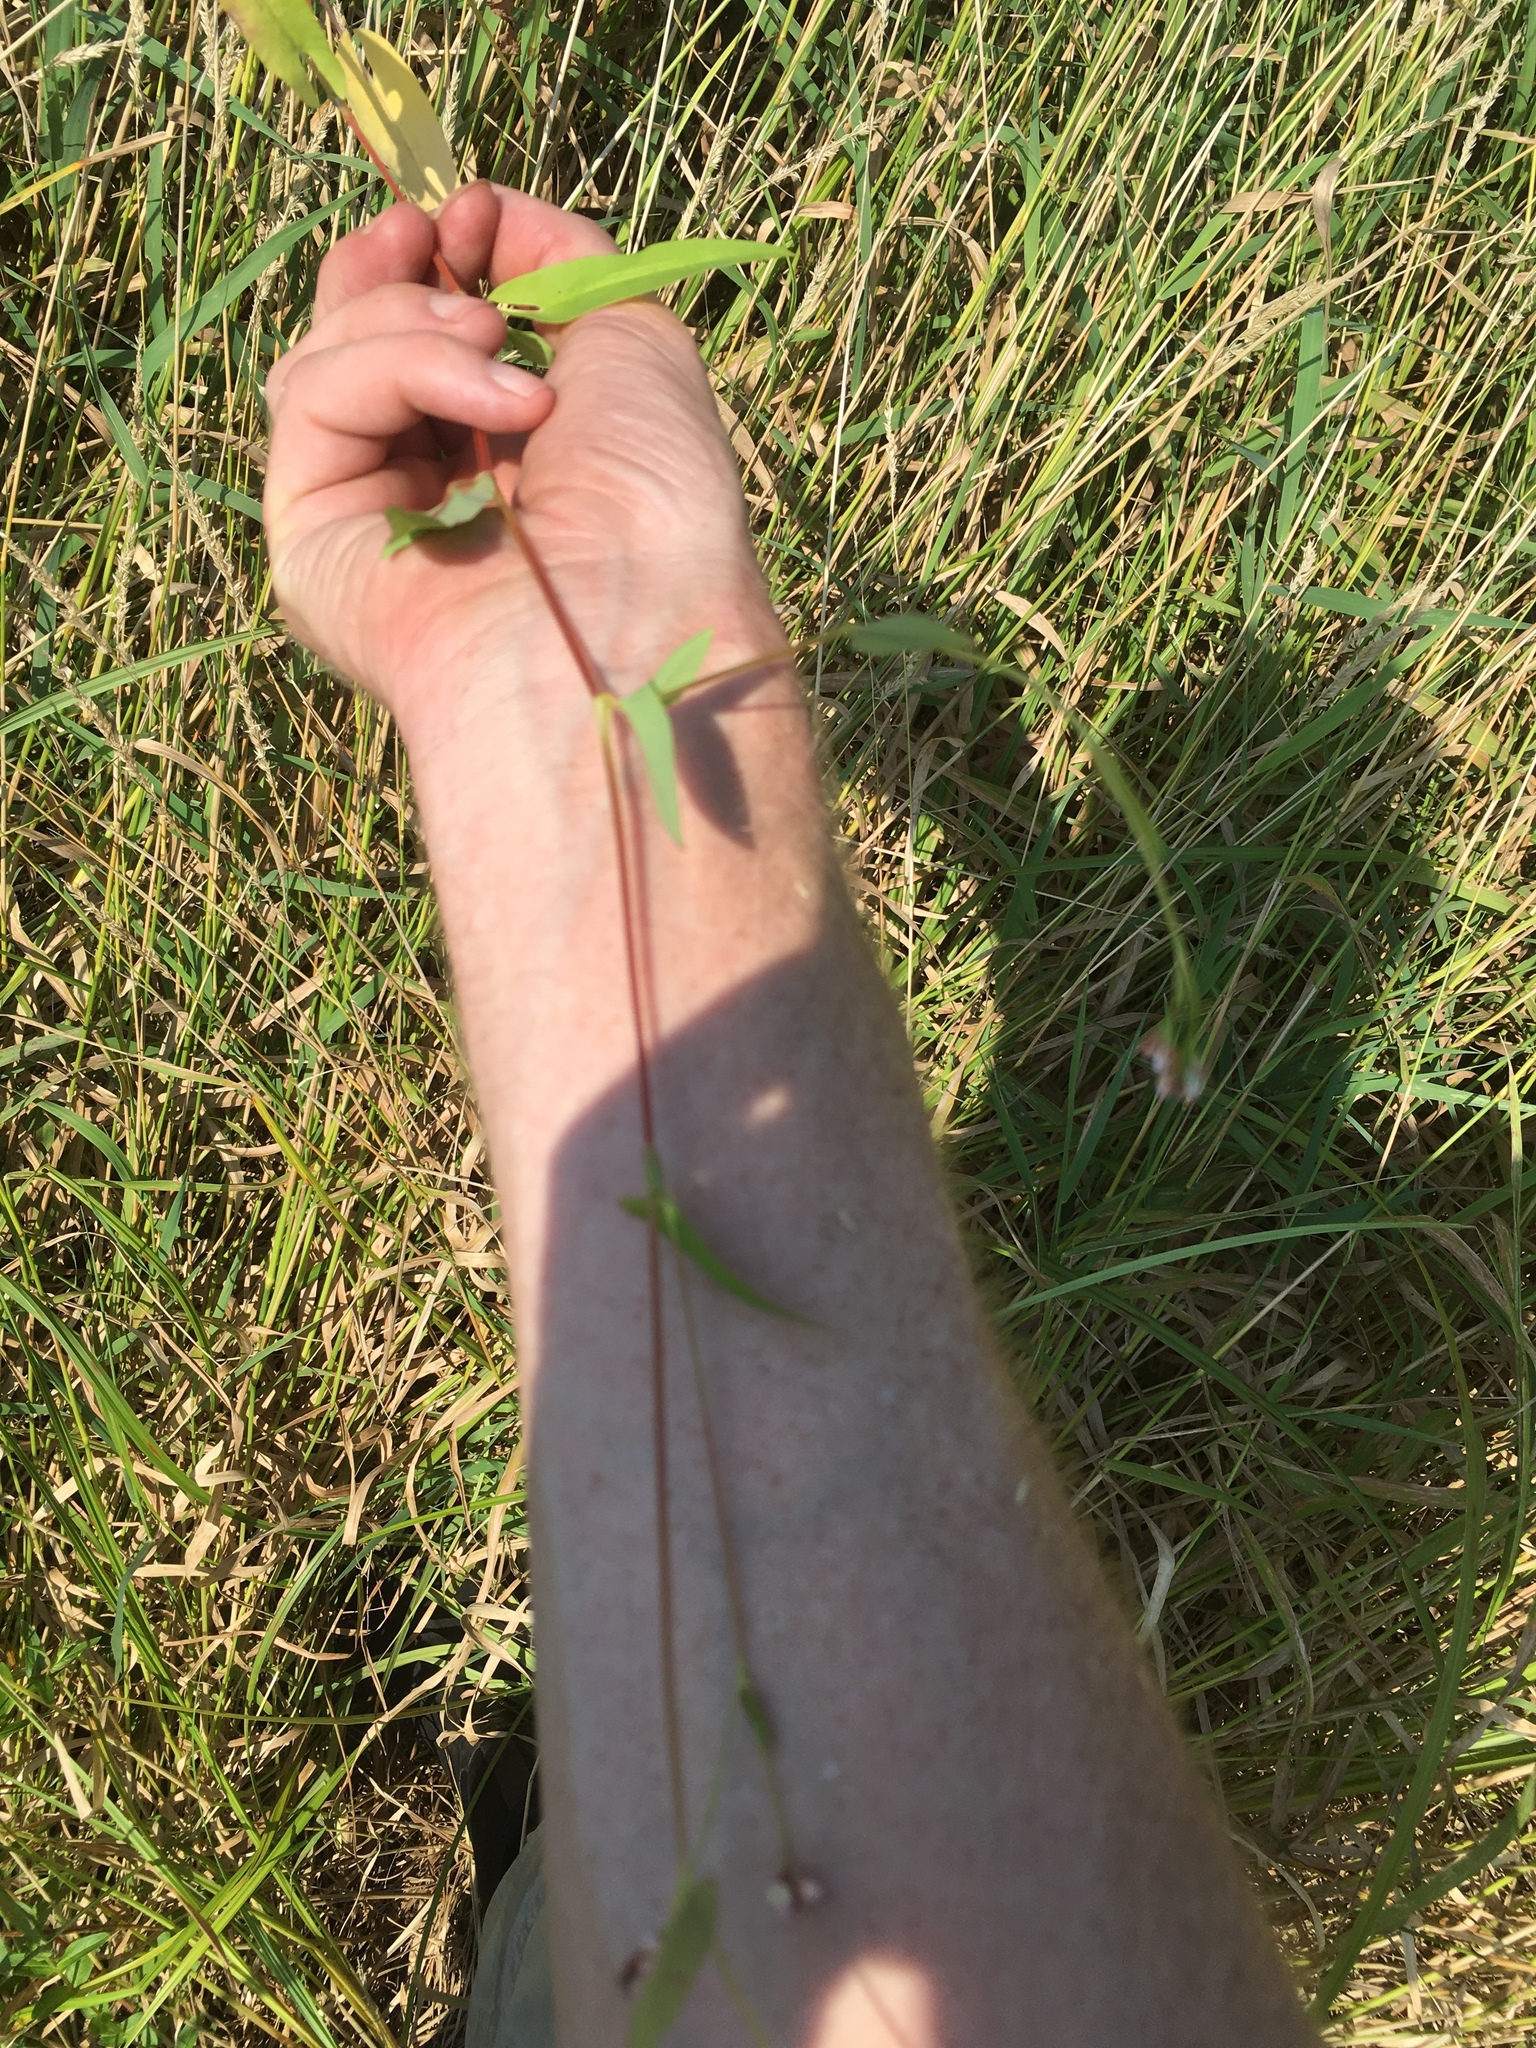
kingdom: Plantae
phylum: Tracheophyta
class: Magnoliopsida
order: Caryophyllales
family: Polygonaceae
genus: Persicaria
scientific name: Persicaria sagittata
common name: American tearthumb
